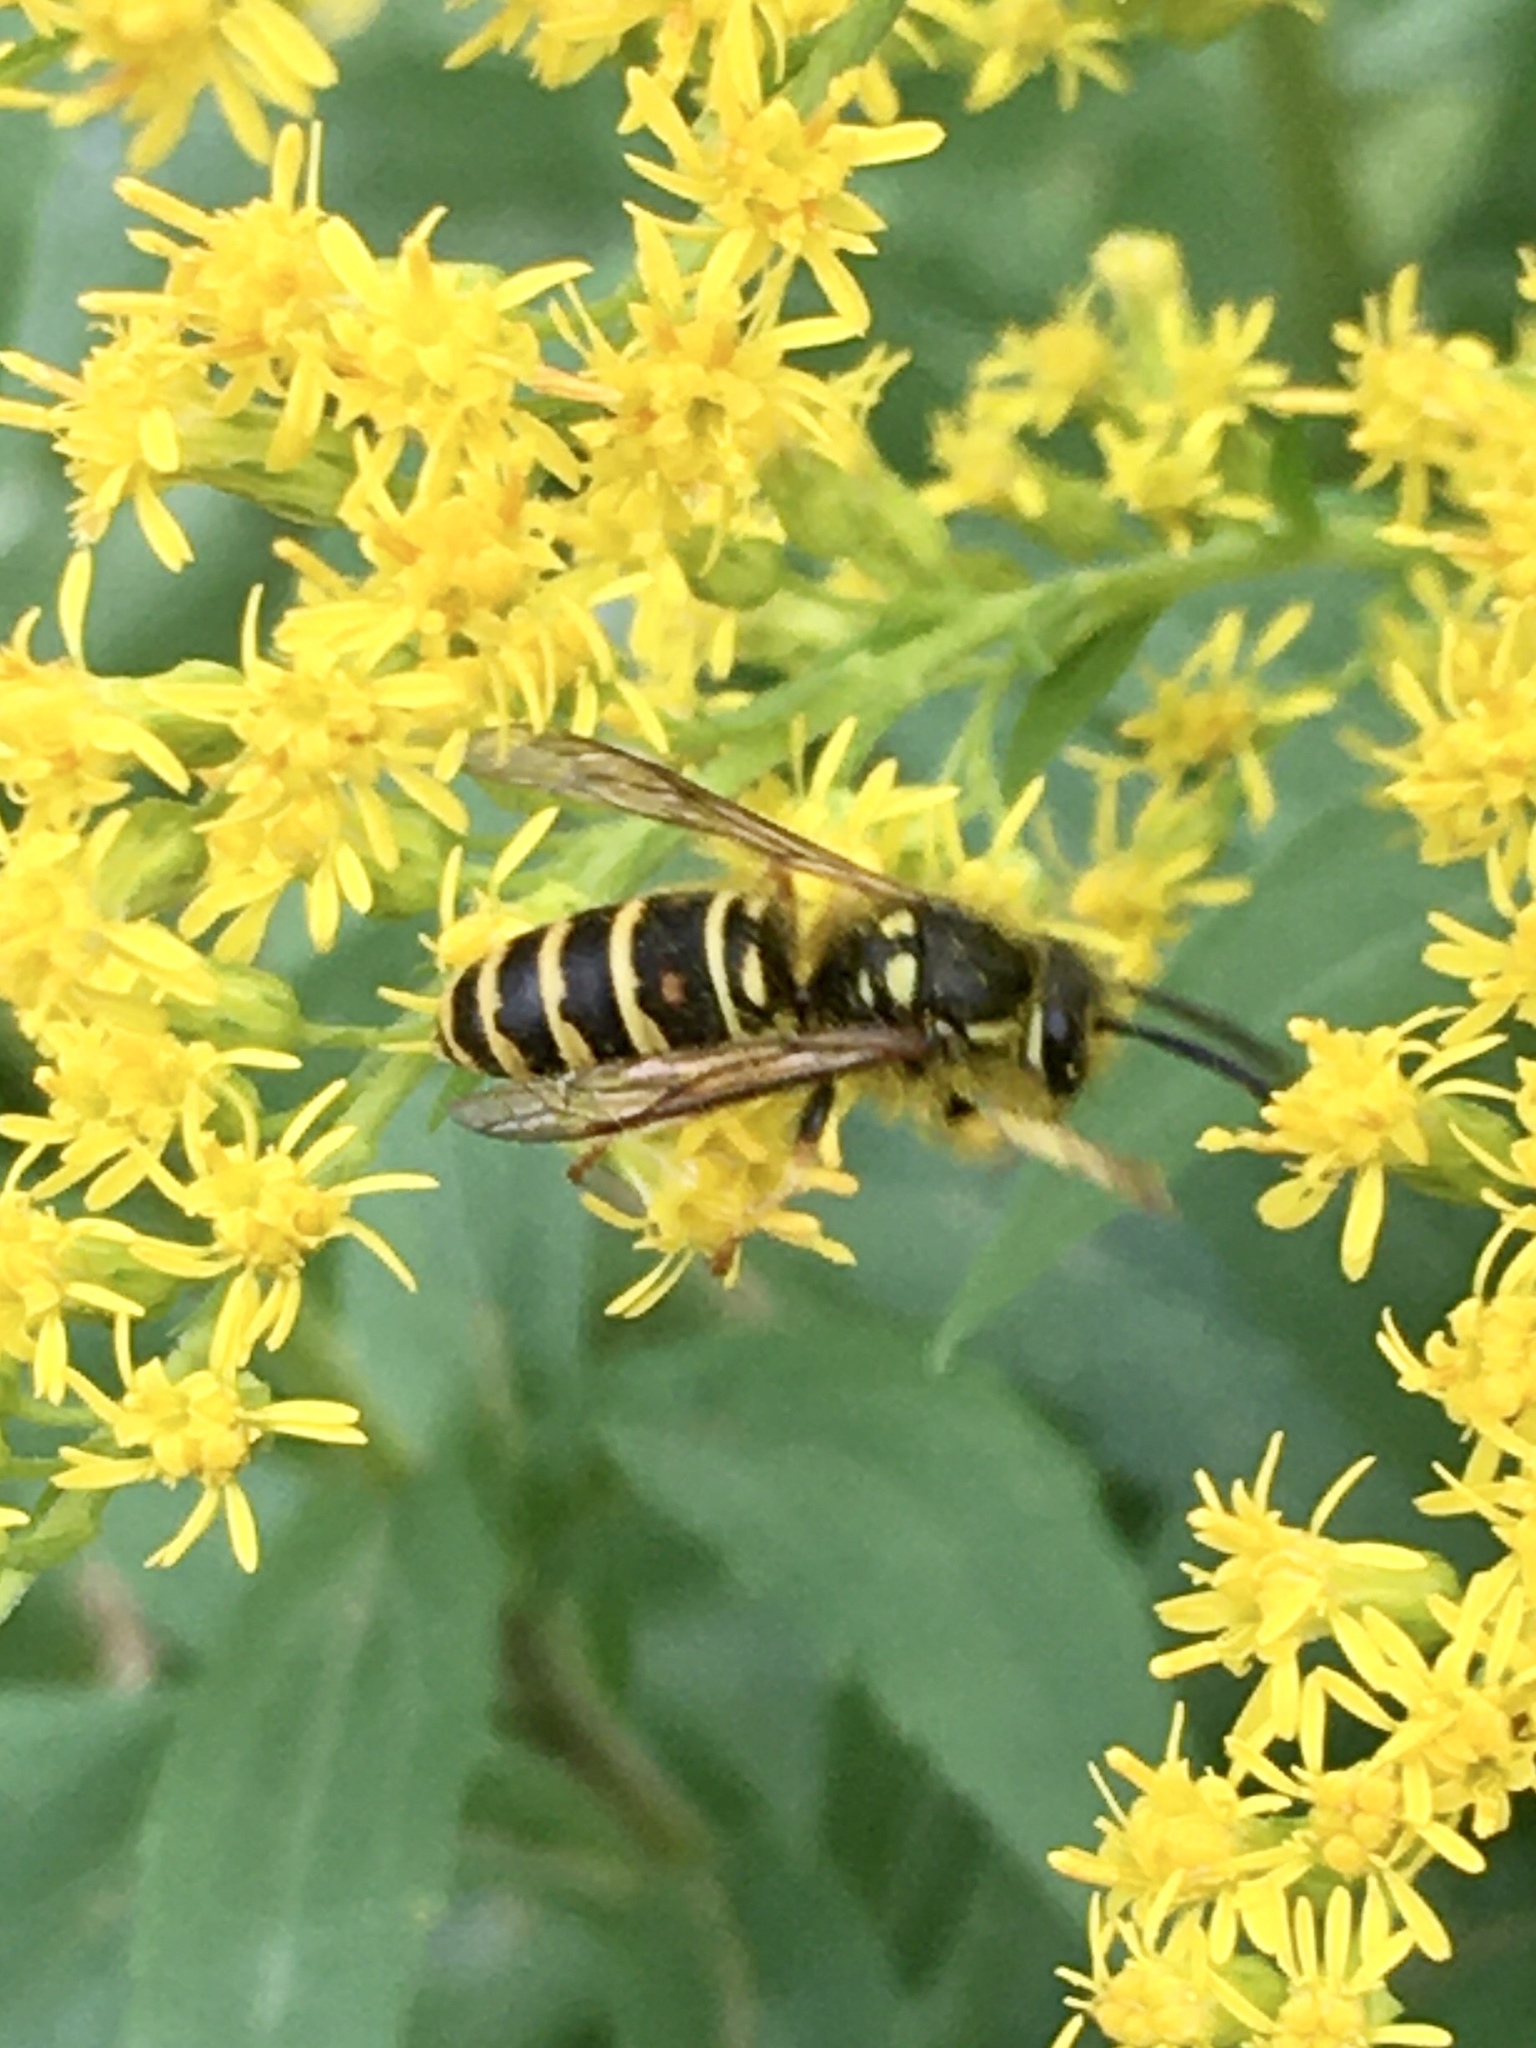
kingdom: Animalia
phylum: Arthropoda
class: Insecta
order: Hymenoptera
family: Vespidae
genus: Vespula
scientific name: Vespula acadica
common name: Forest yellowjacket
